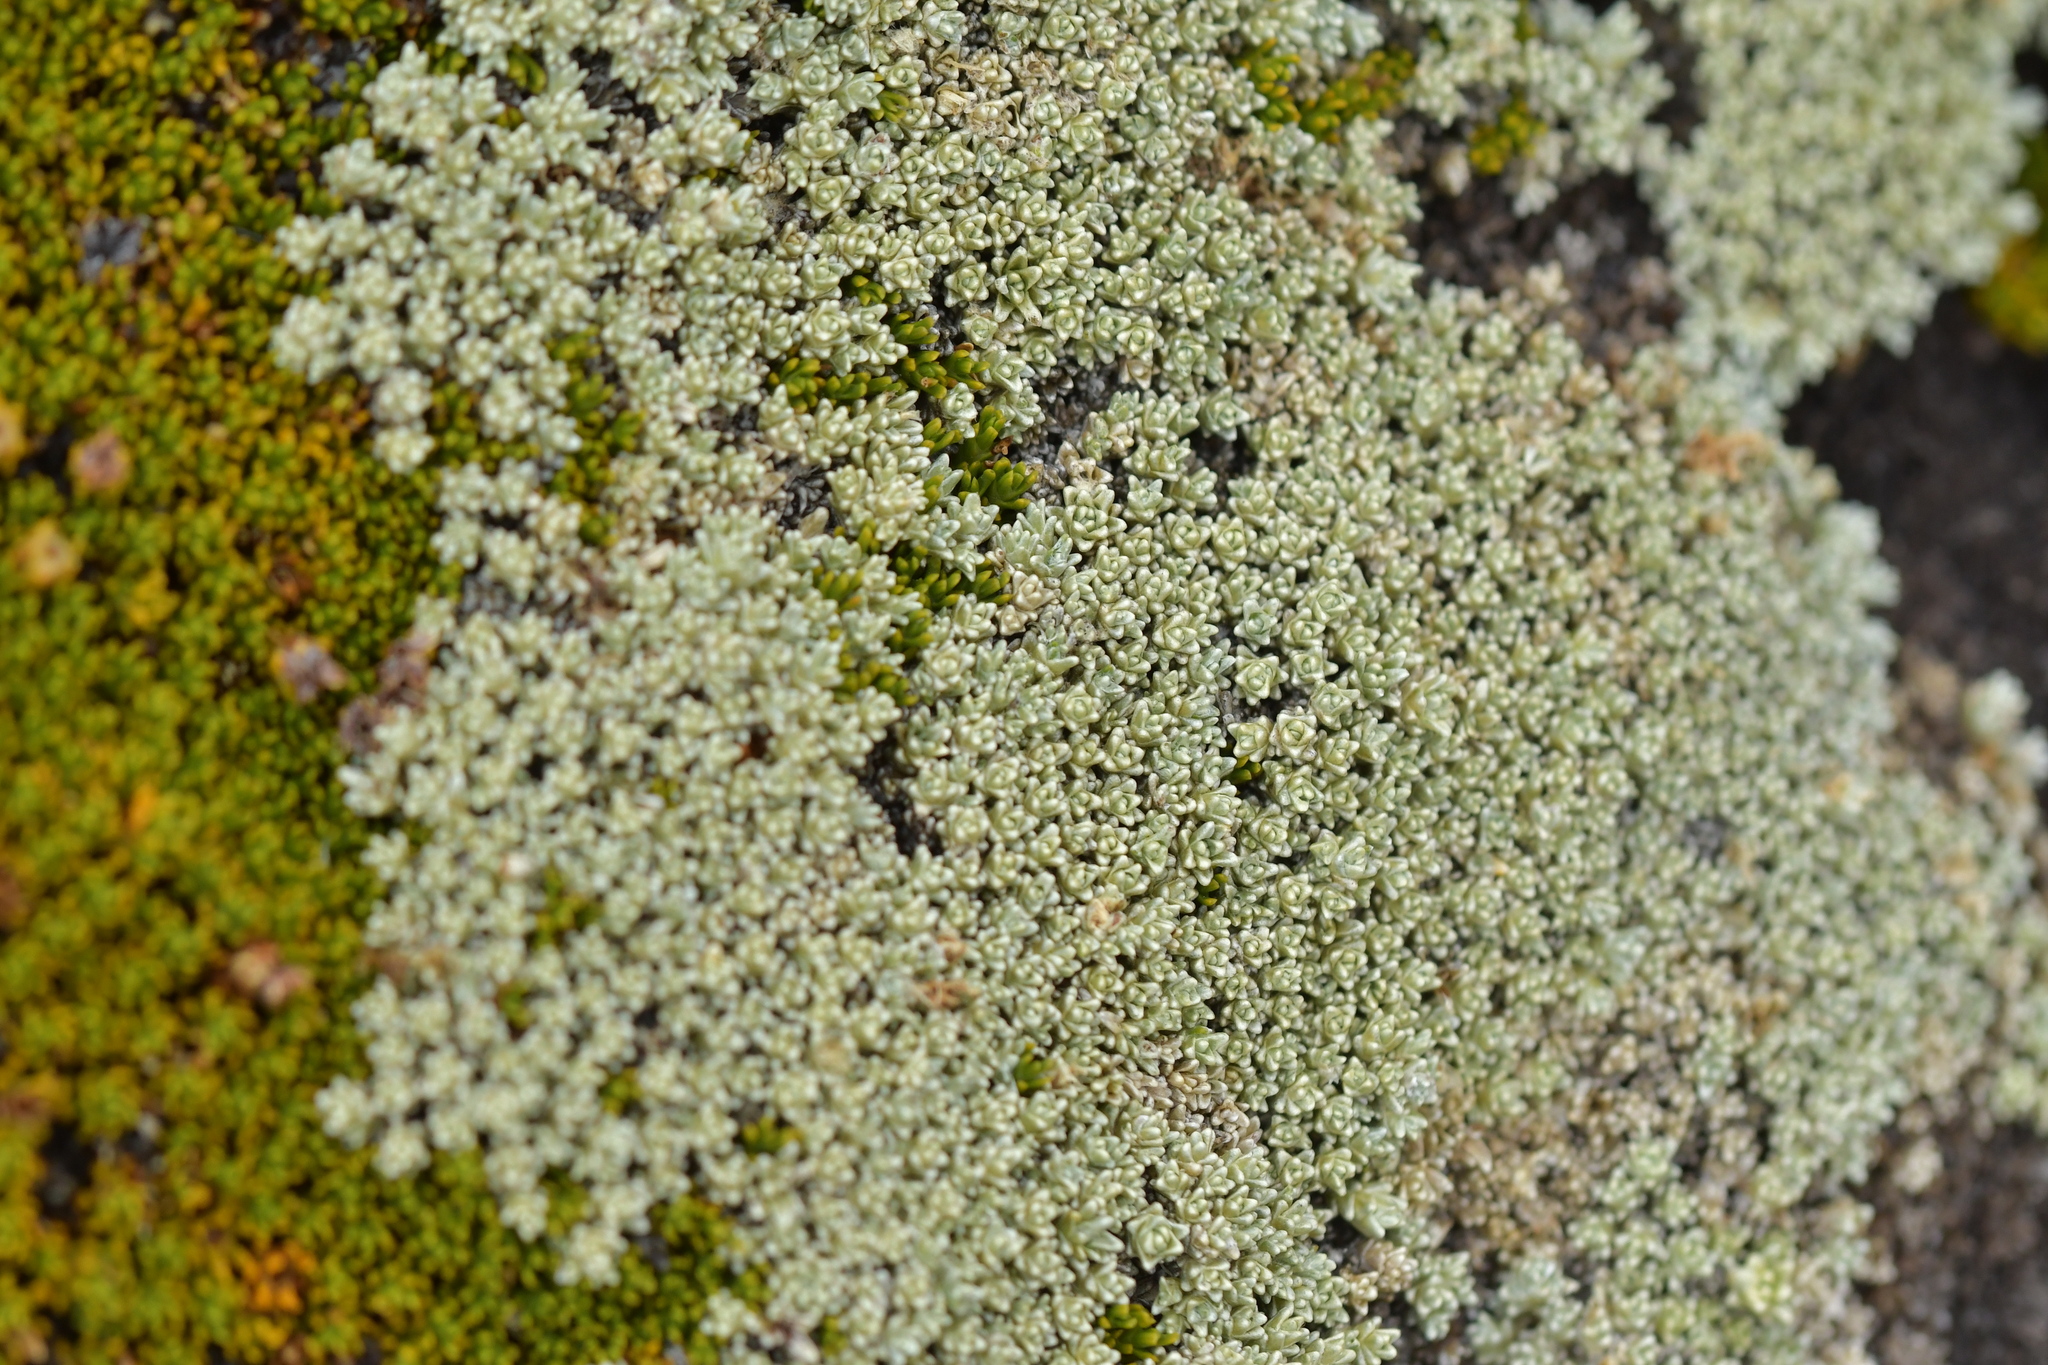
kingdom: Plantae
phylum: Tracheophyta
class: Magnoliopsida
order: Asterales
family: Asteraceae
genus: Raoulia
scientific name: Raoulia hectorii
